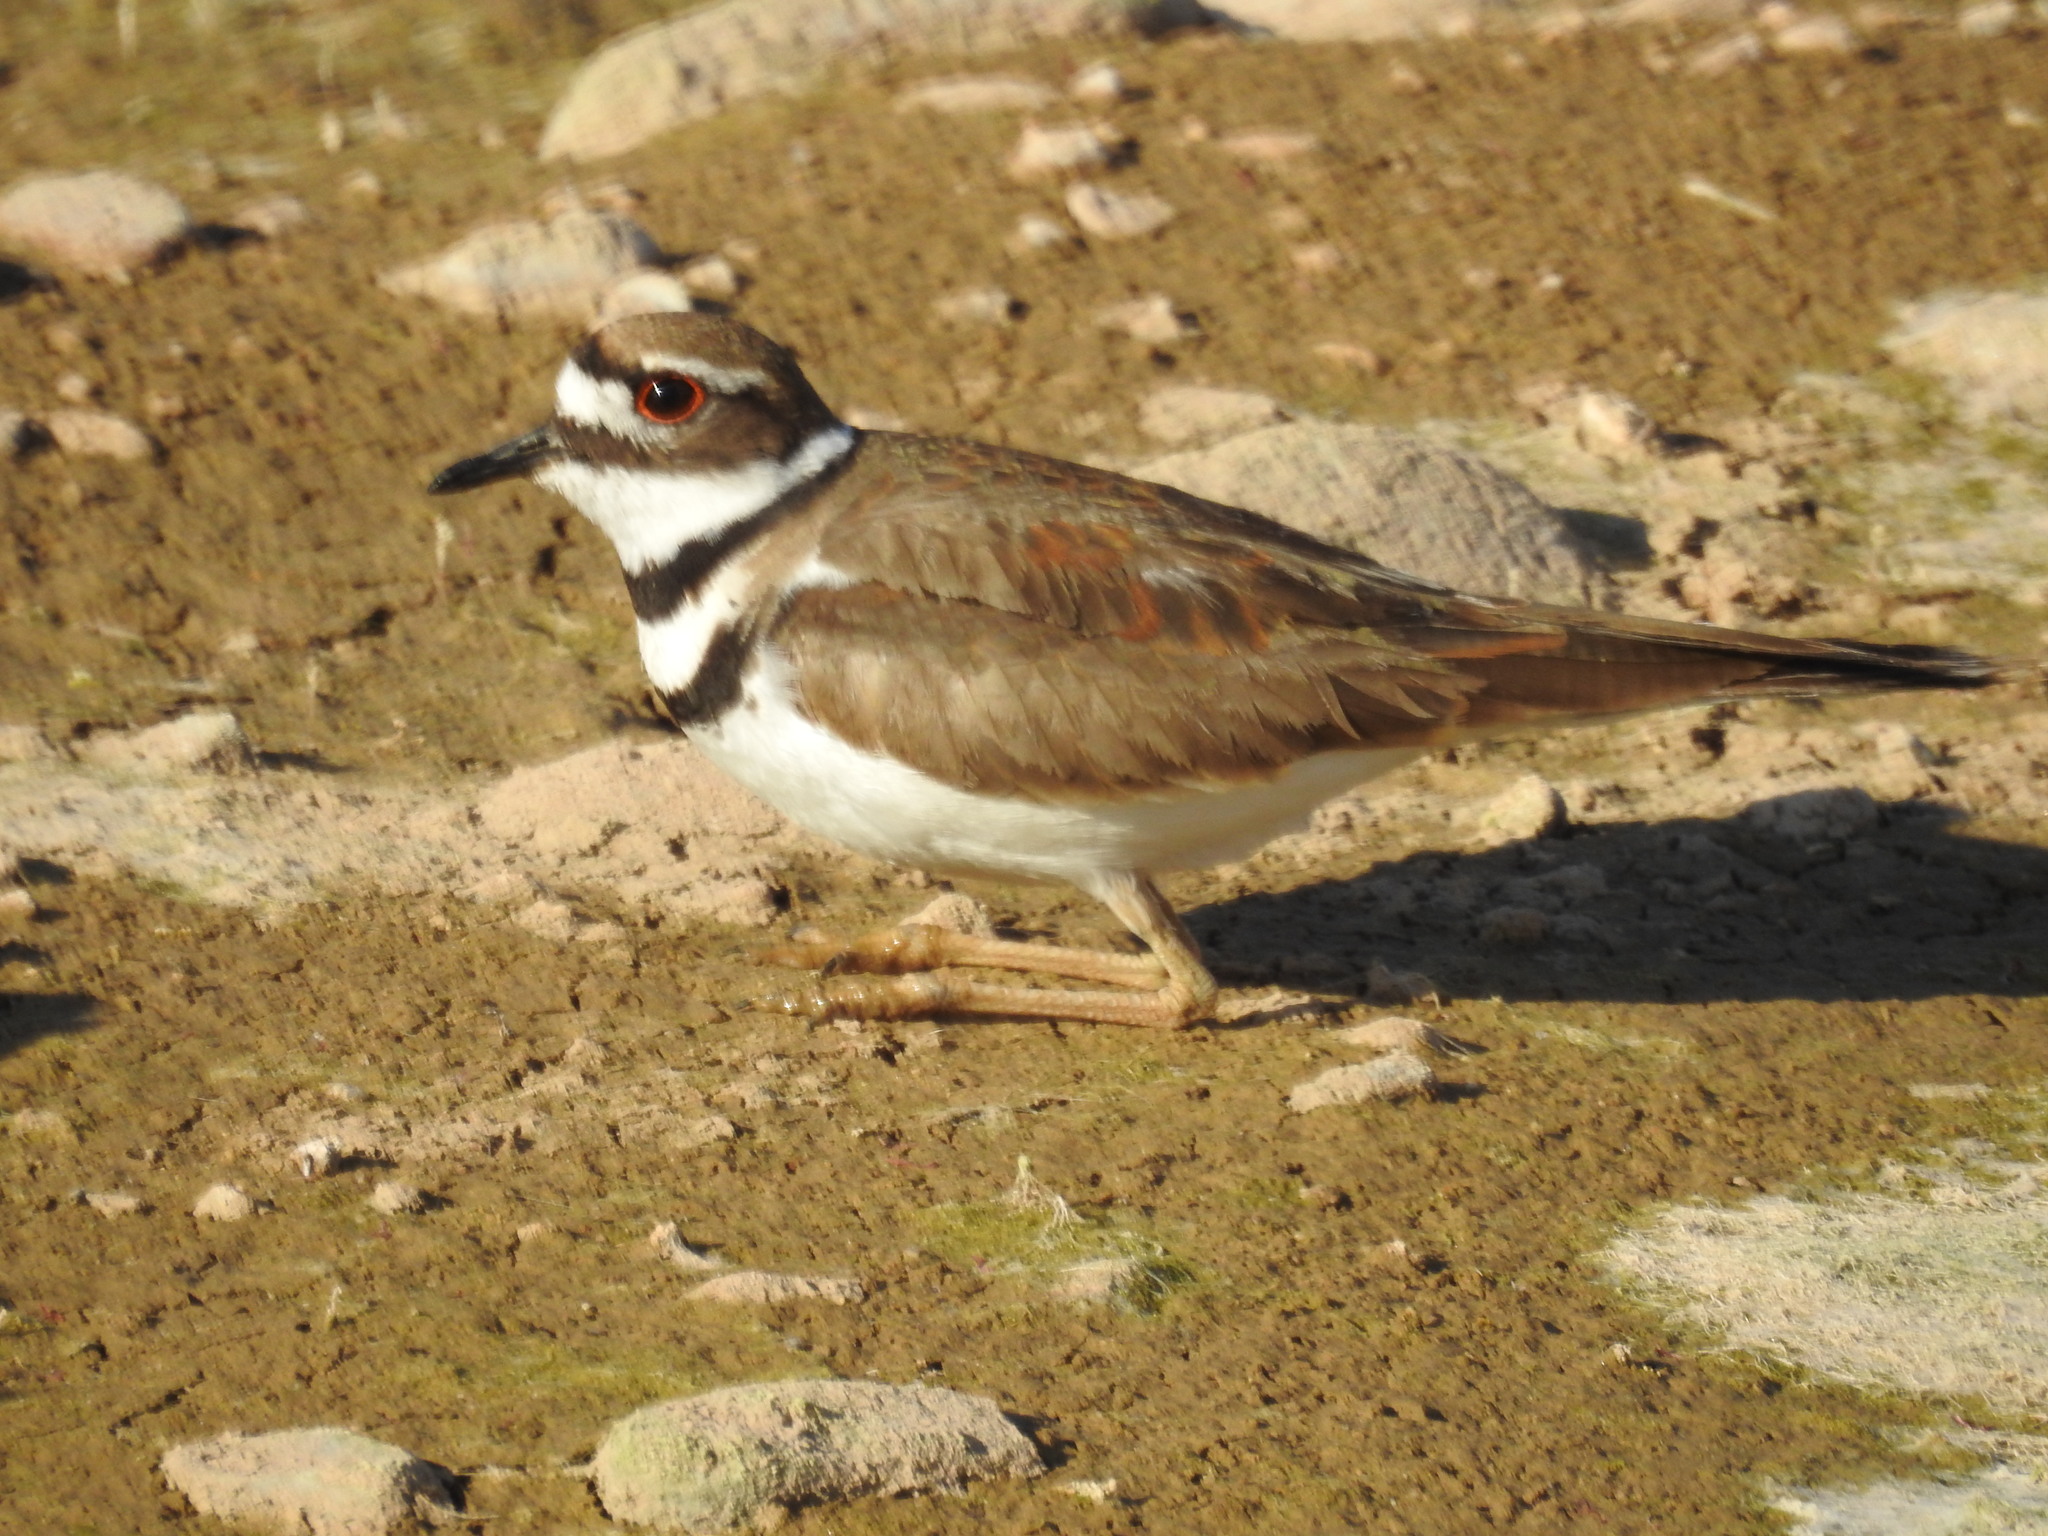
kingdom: Animalia
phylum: Chordata
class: Aves
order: Charadriiformes
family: Charadriidae
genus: Charadrius
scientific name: Charadrius vociferus
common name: Killdeer
